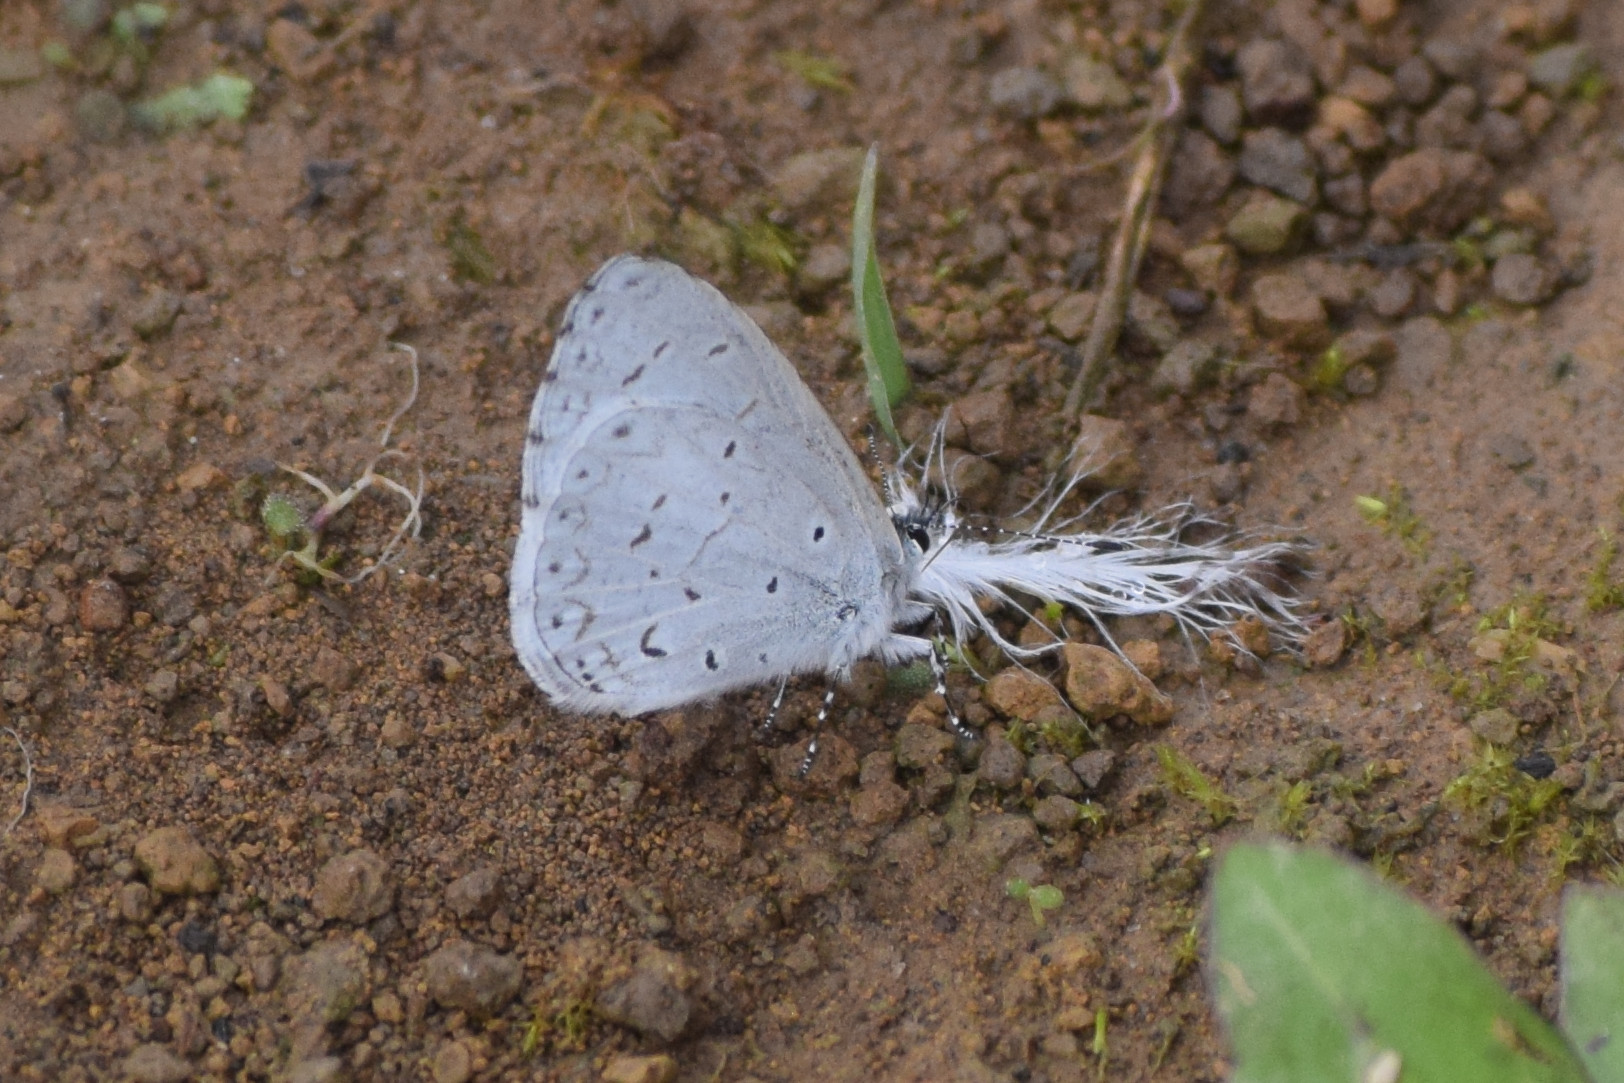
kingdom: Animalia
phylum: Arthropoda
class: Insecta
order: Lepidoptera
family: Lycaenidae
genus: Udara
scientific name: Udara dilectus
